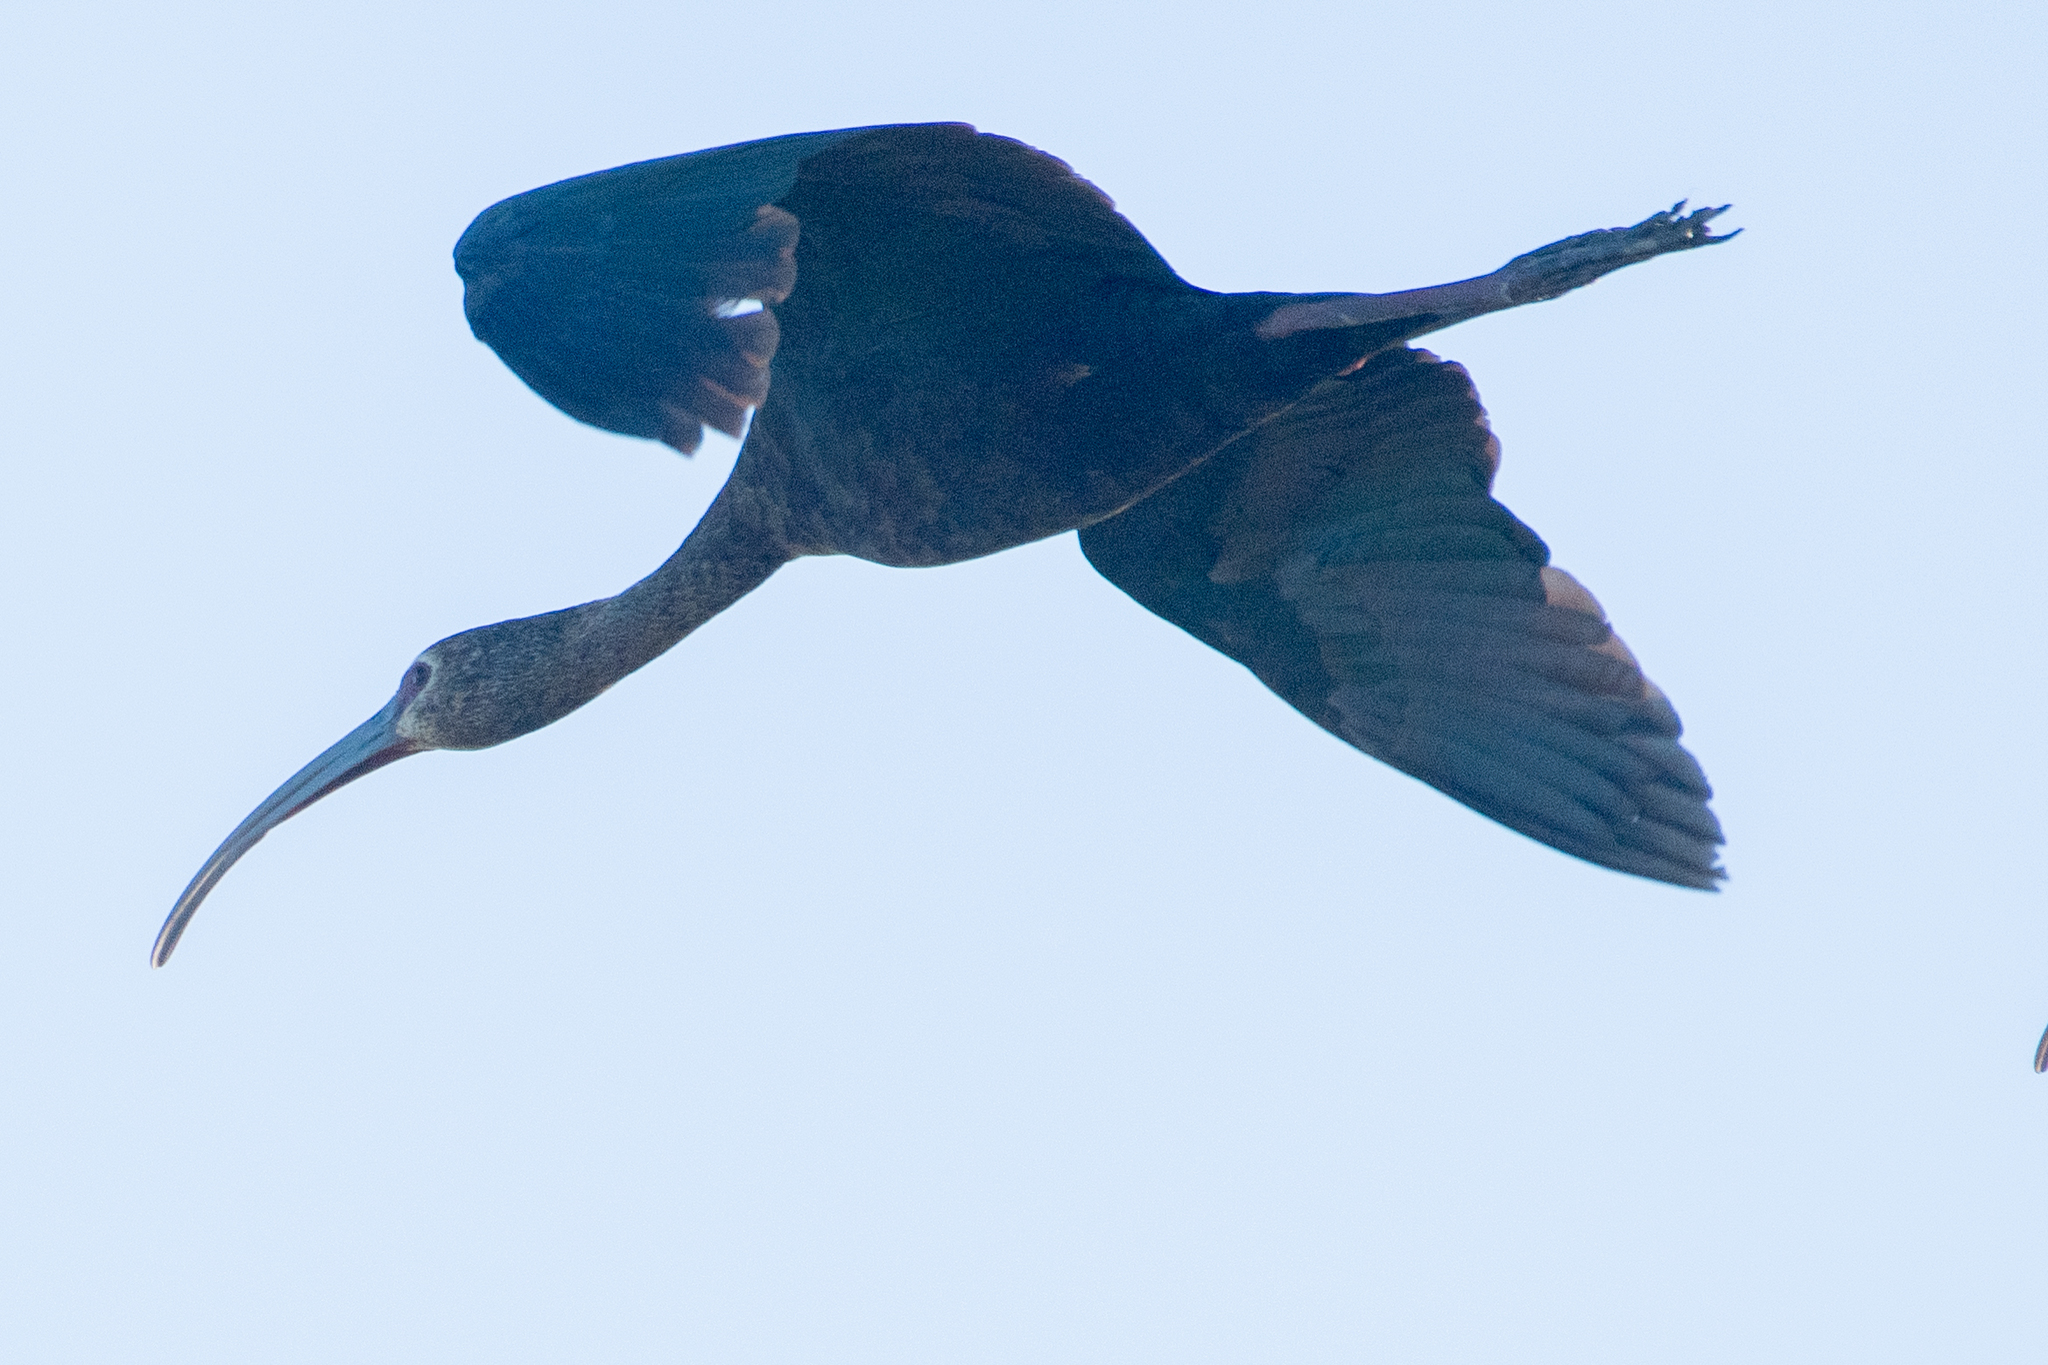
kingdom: Animalia
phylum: Chordata
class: Aves
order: Pelecaniformes
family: Threskiornithidae
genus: Plegadis
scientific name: Plegadis chihi
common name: White-faced ibis
